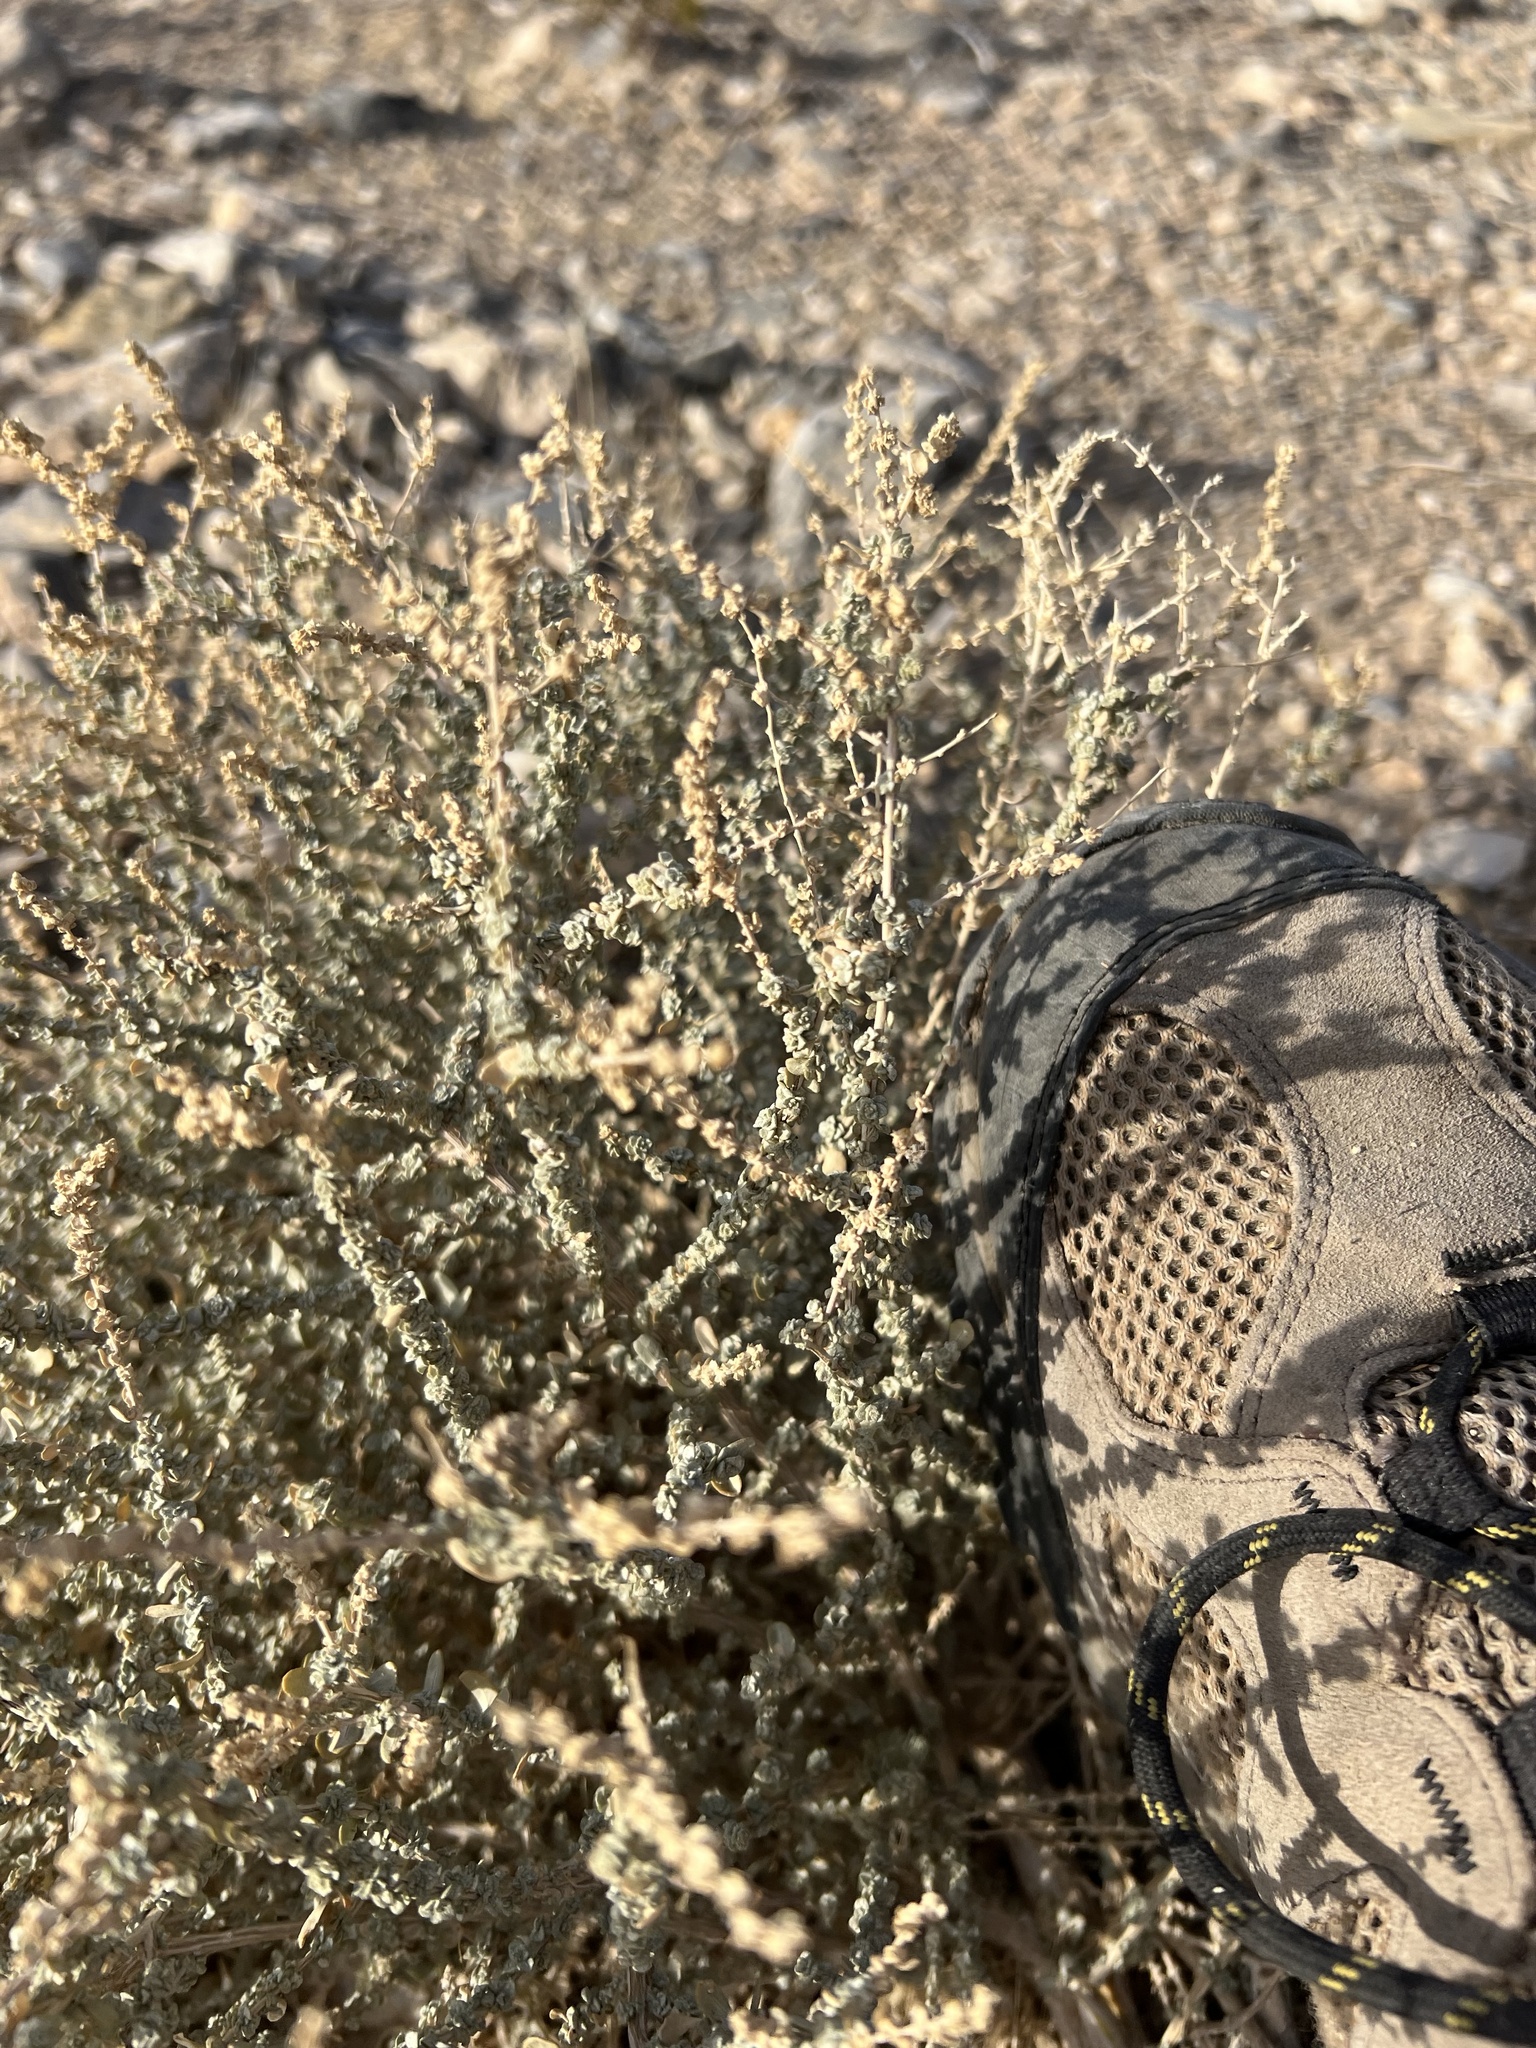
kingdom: Plantae
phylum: Tracheophyta
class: Magnoliopsida
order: Caryophyllales
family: Amaranthaceae
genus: Atriplex
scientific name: Atriplex polycarpa
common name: Desert saltbush
